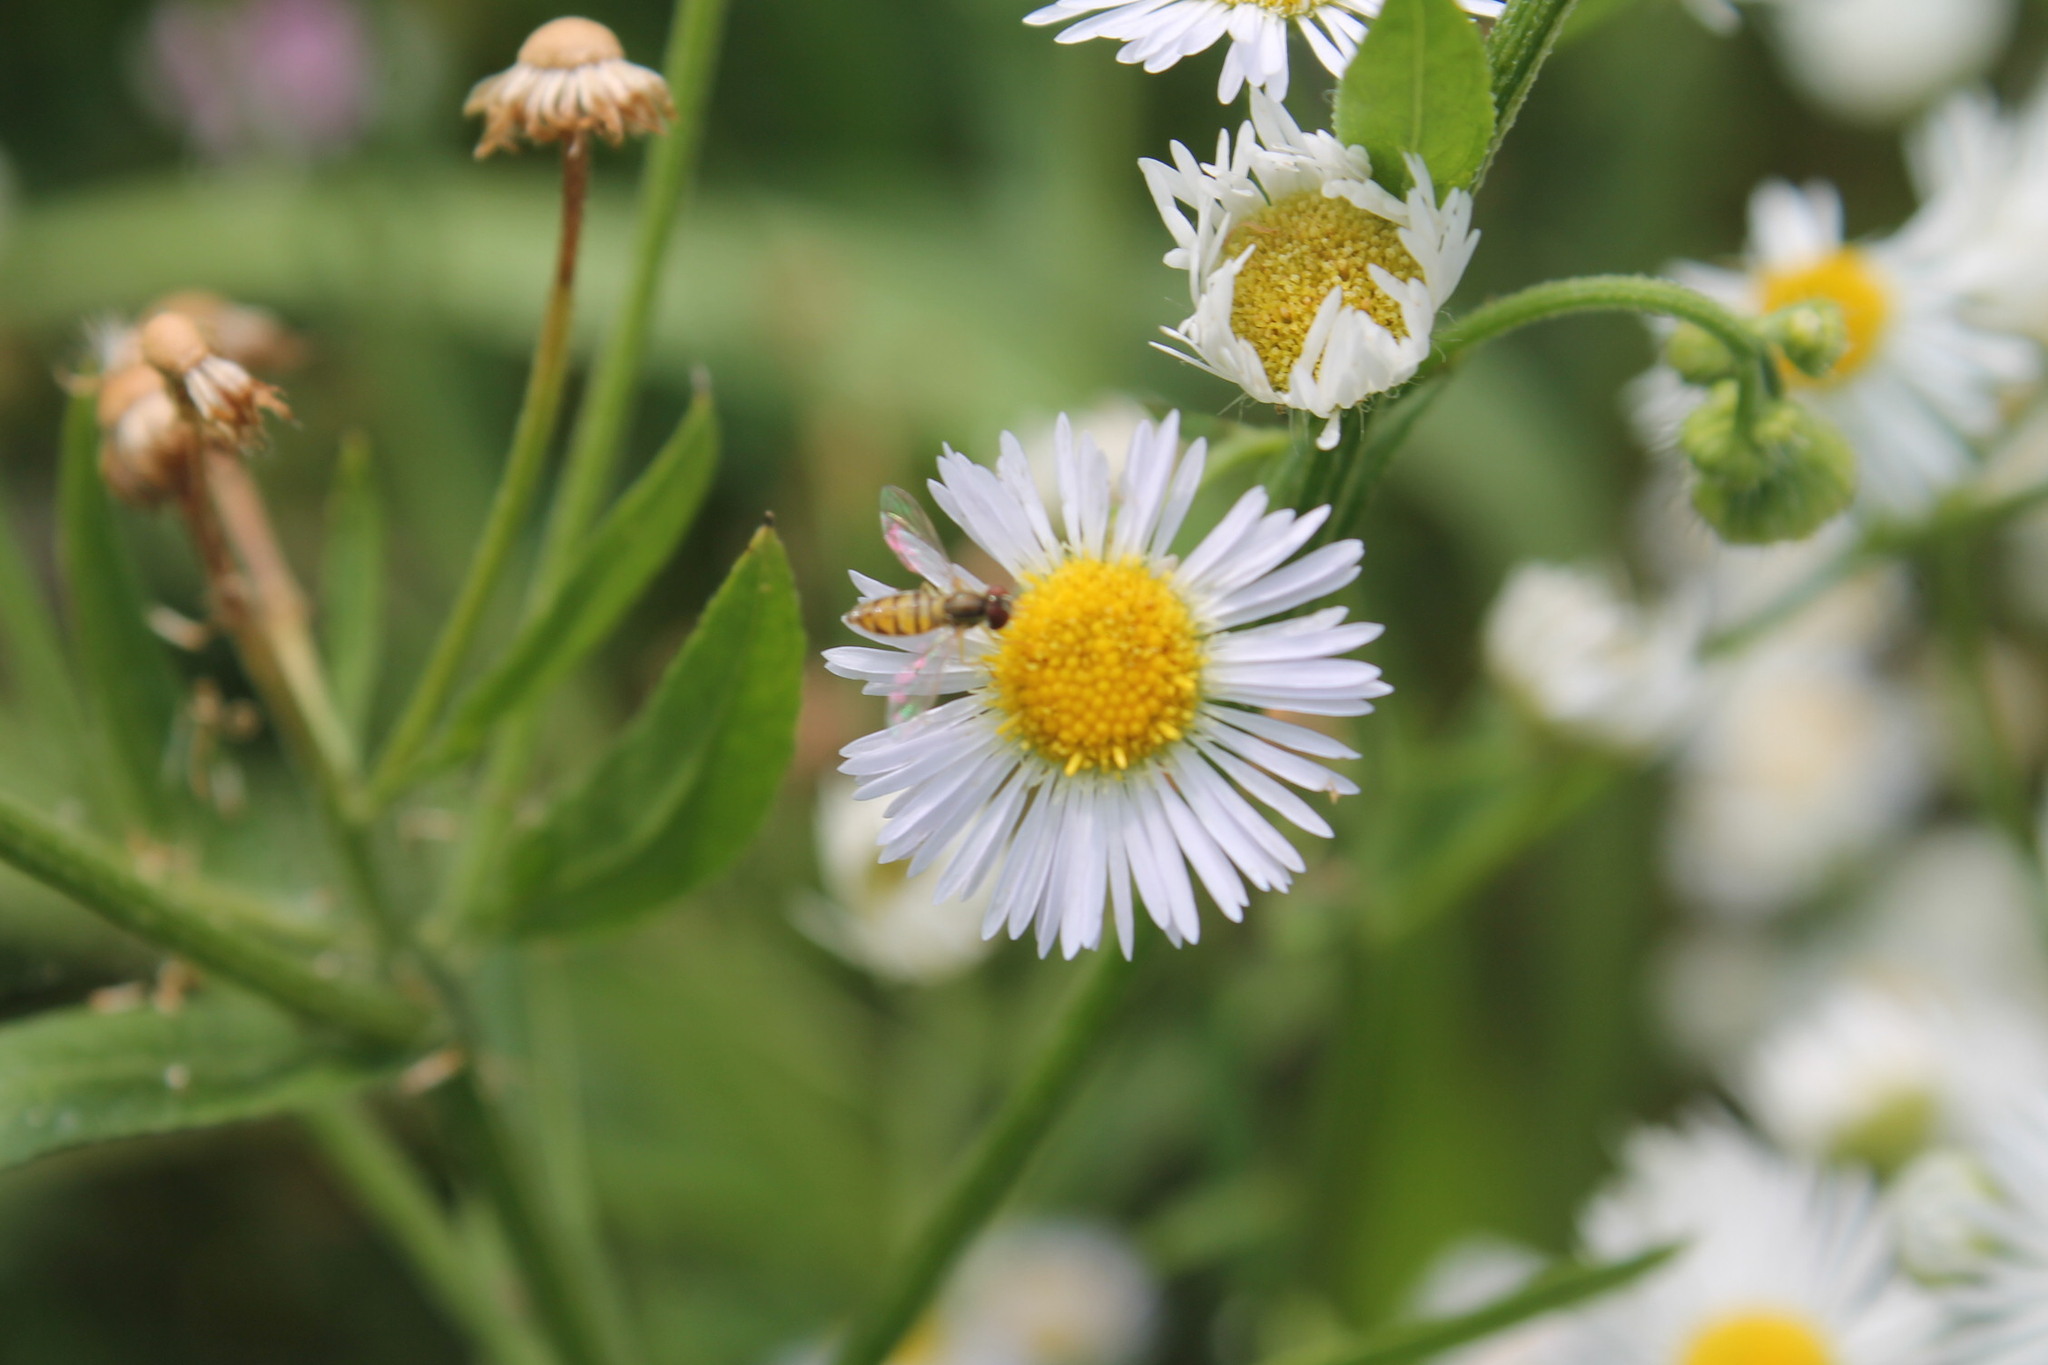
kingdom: Plantae
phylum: Tracheophyta
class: Magnoliopsida
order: Asterales
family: Asteraceae
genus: Erigeron
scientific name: Erigeron annuus
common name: Tall fleabane
